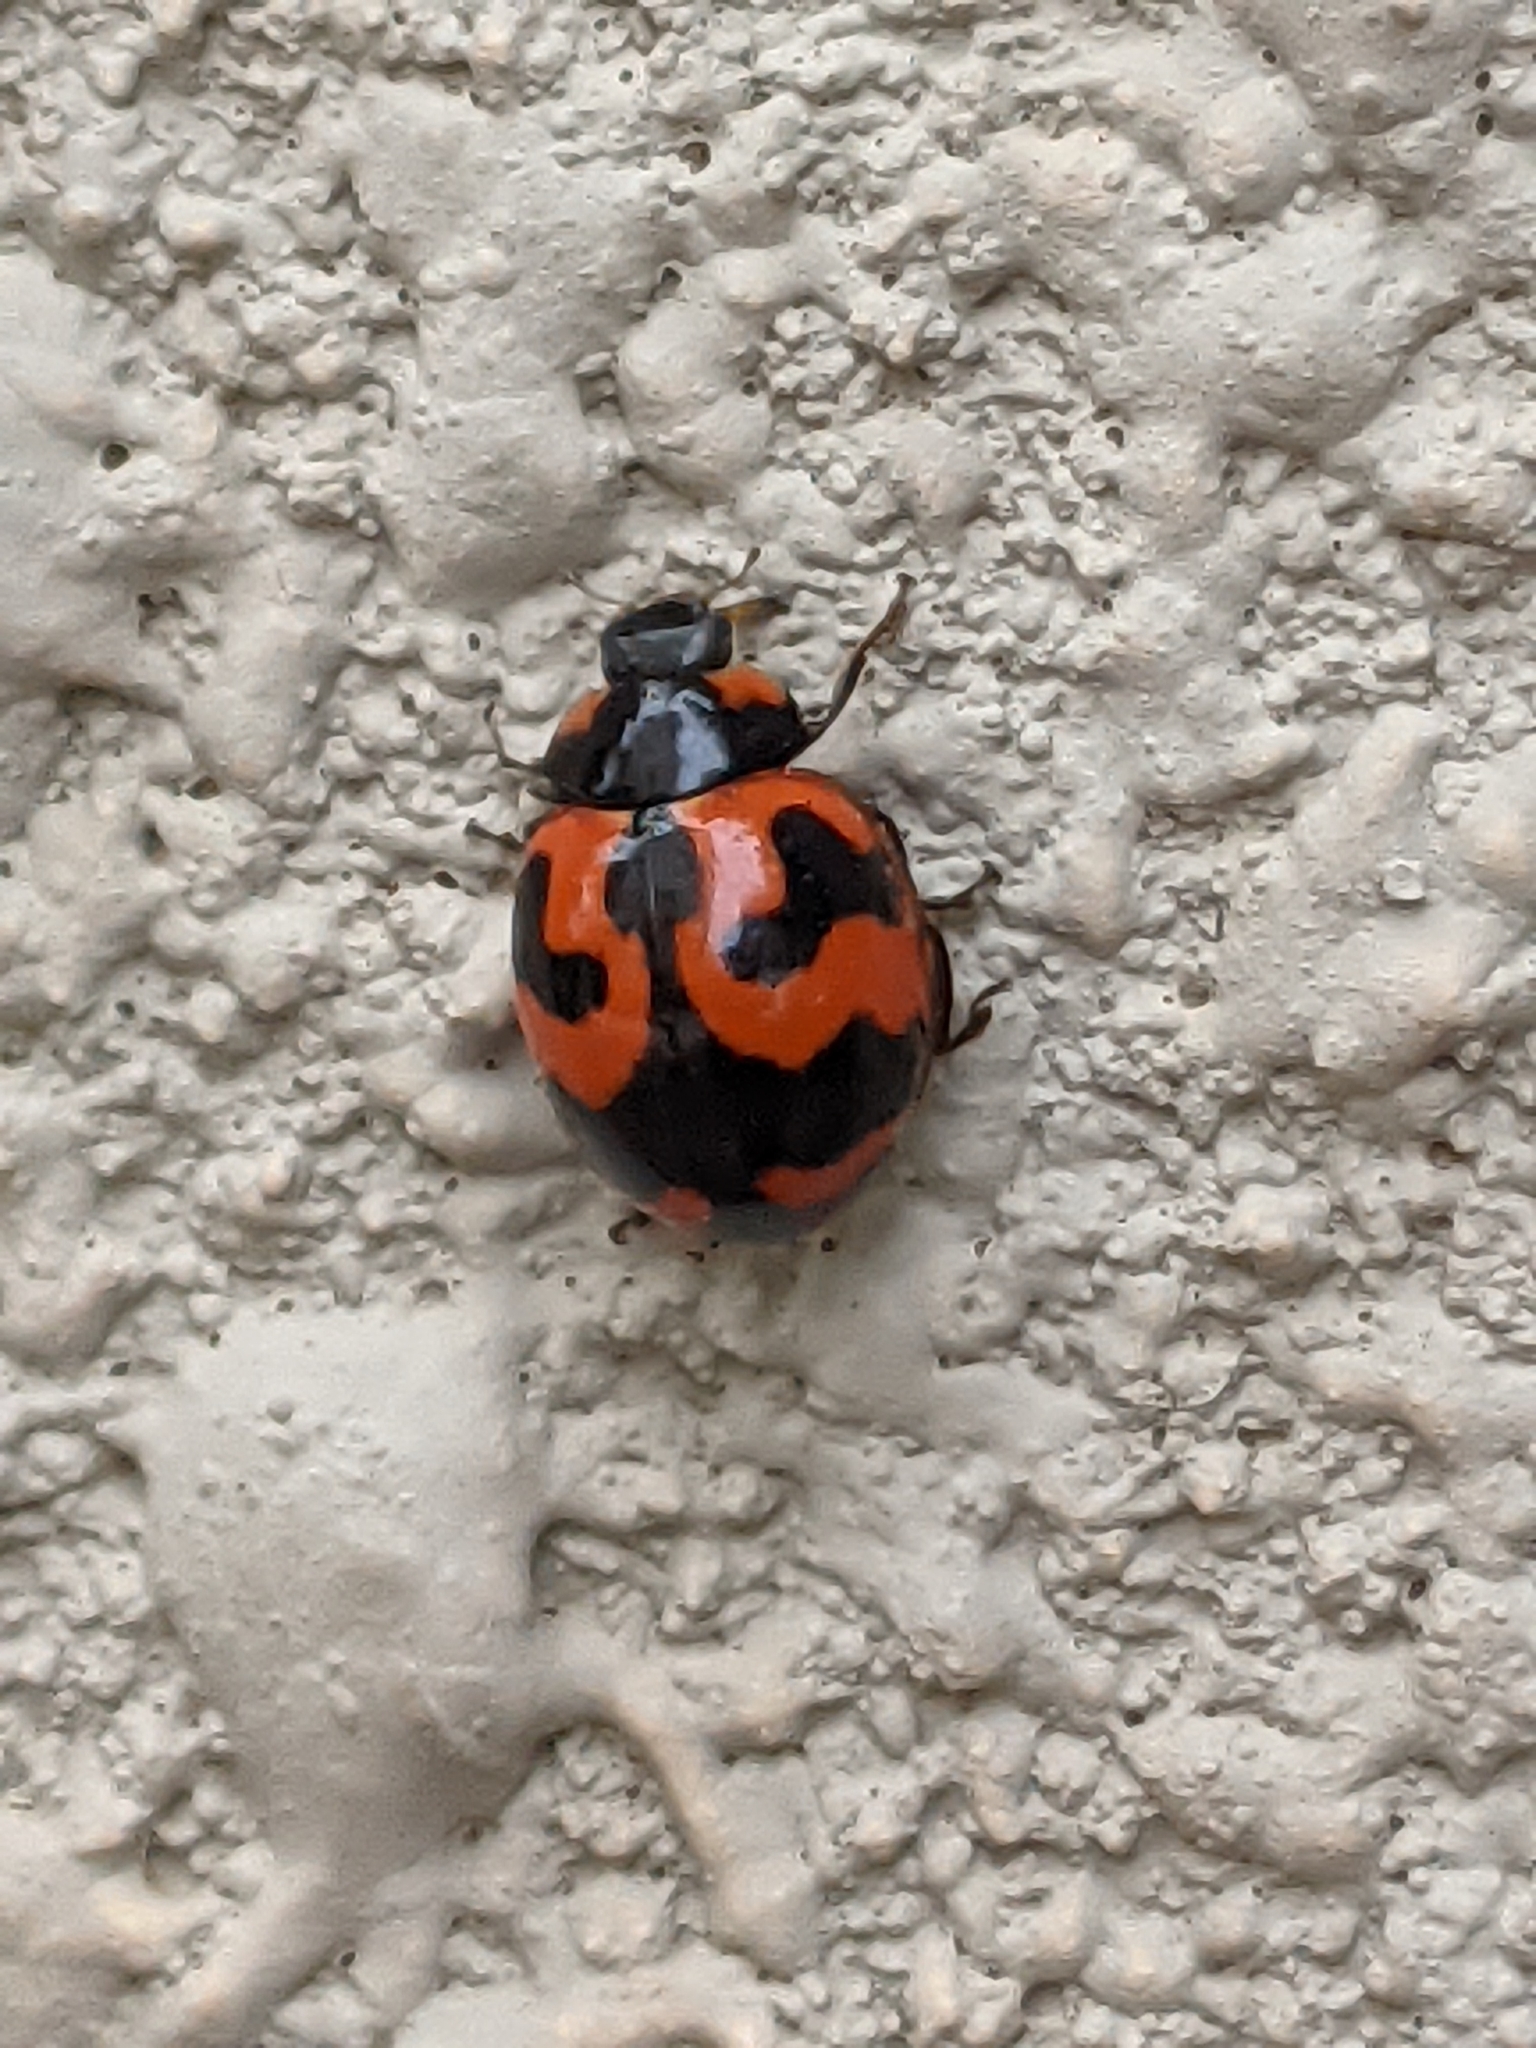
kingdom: Animalia
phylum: Arthropoda
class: Insecta
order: Coleoptera
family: Coccinellidae
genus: Coccinella
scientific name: Coccinella transversalis
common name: Transverse lady beetle
